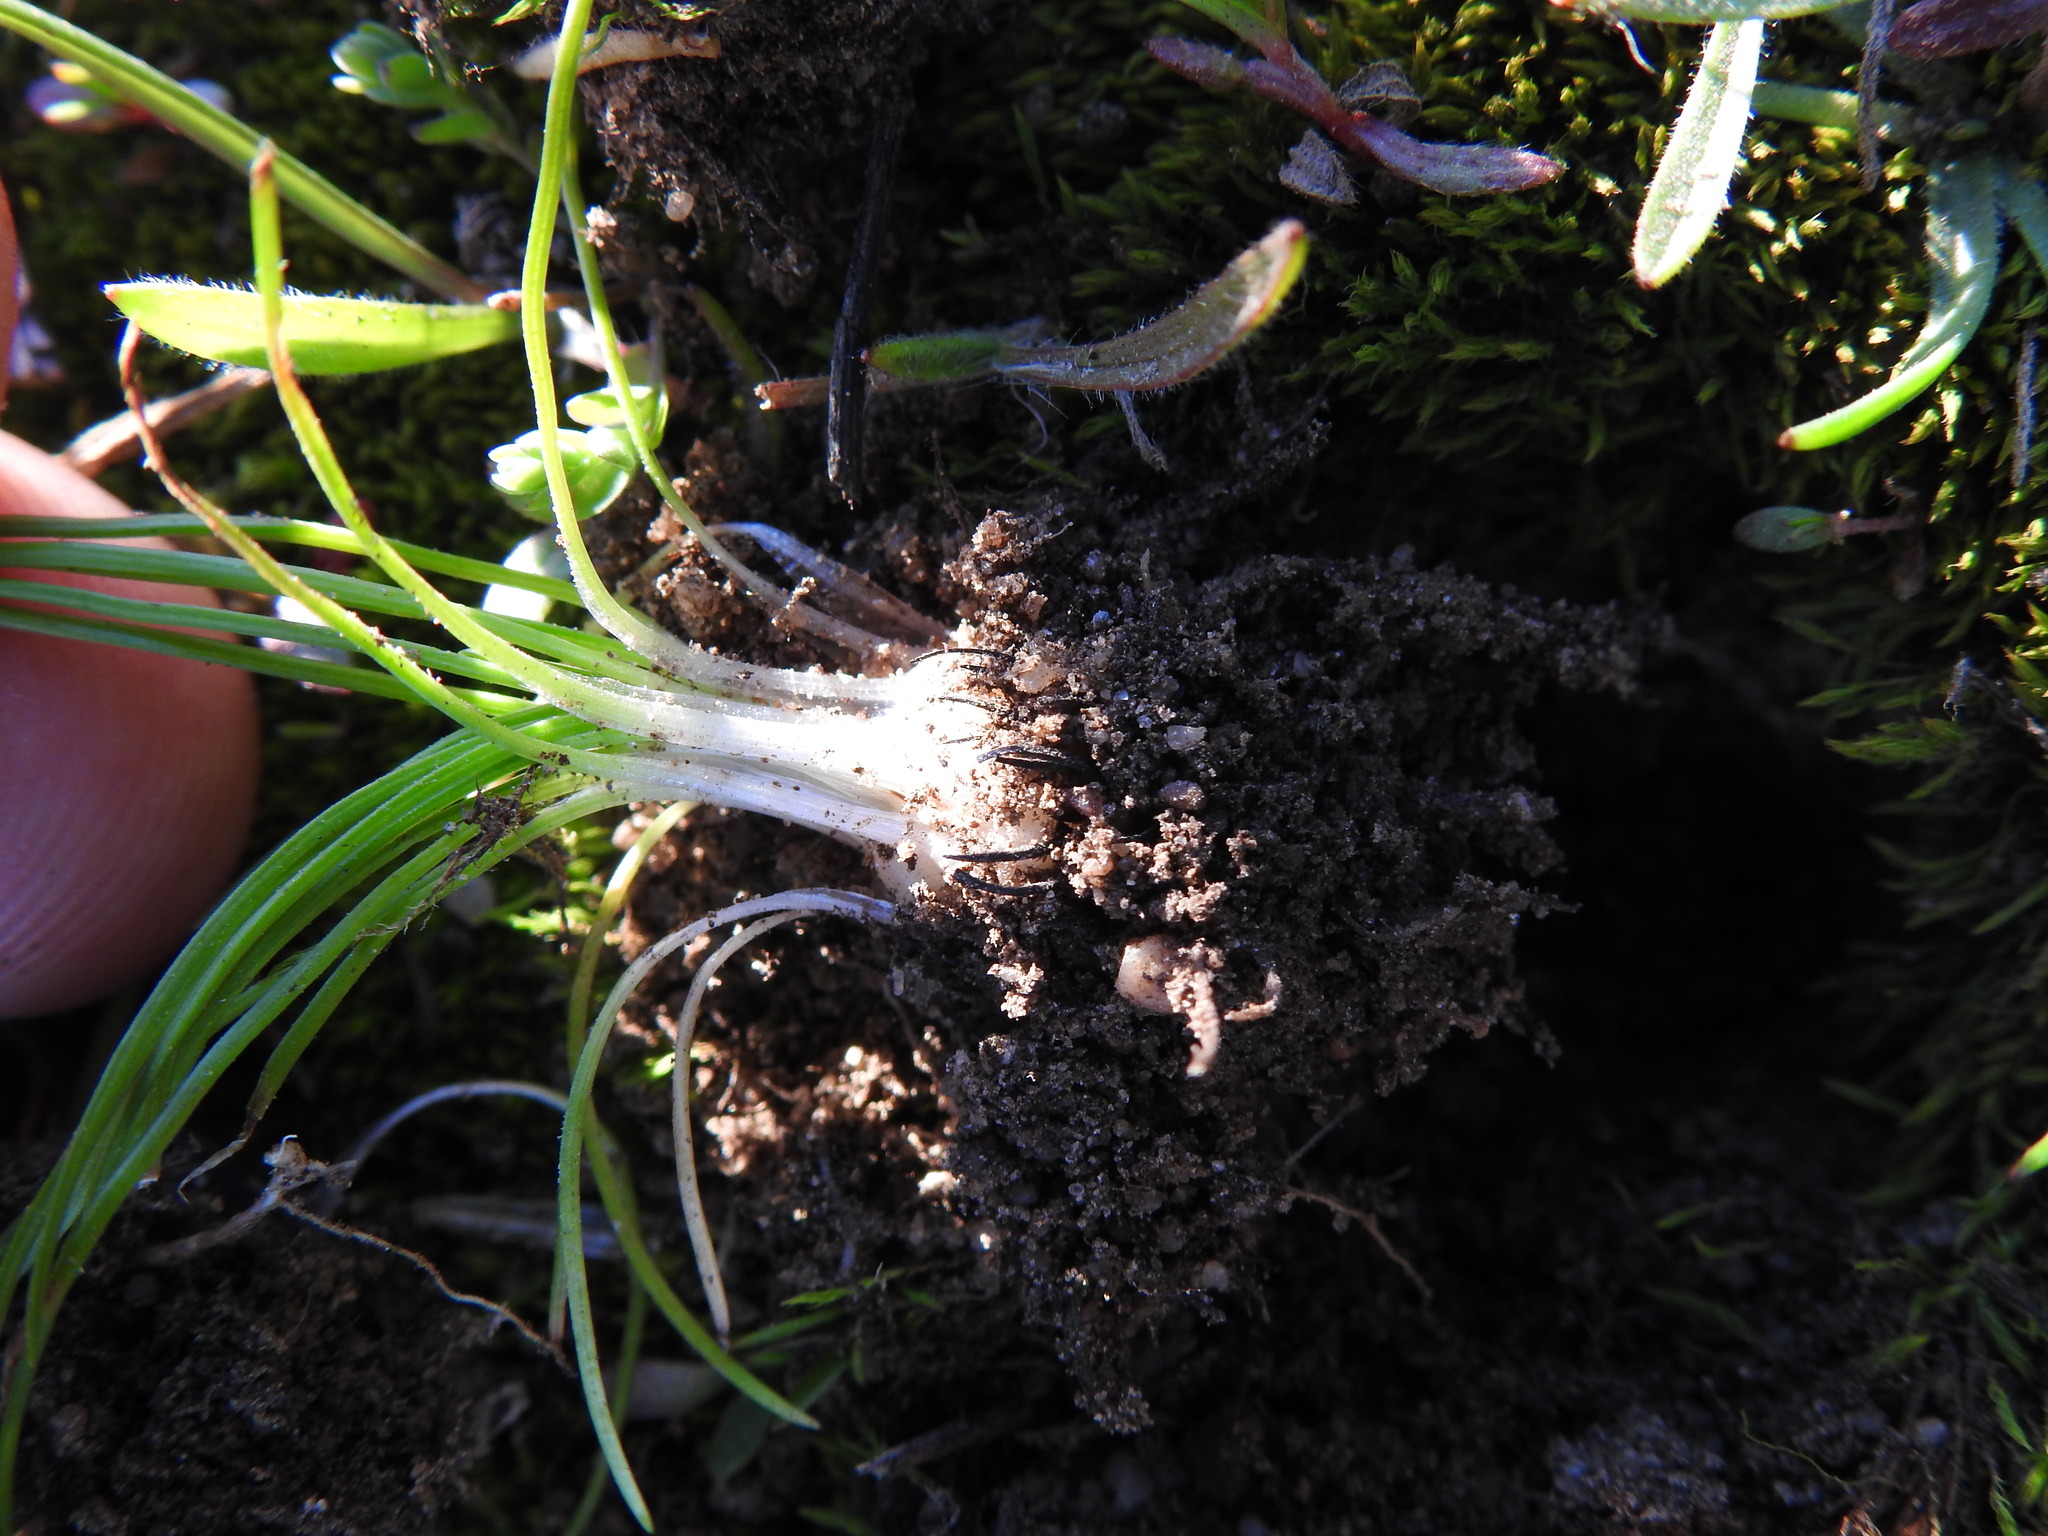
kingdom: Plantae
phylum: Tracheophyta
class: Lycopodiopsida
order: Isoetales
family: Isoetaceae
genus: Isoetes
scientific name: Isoetes histrix
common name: Land quillwort
